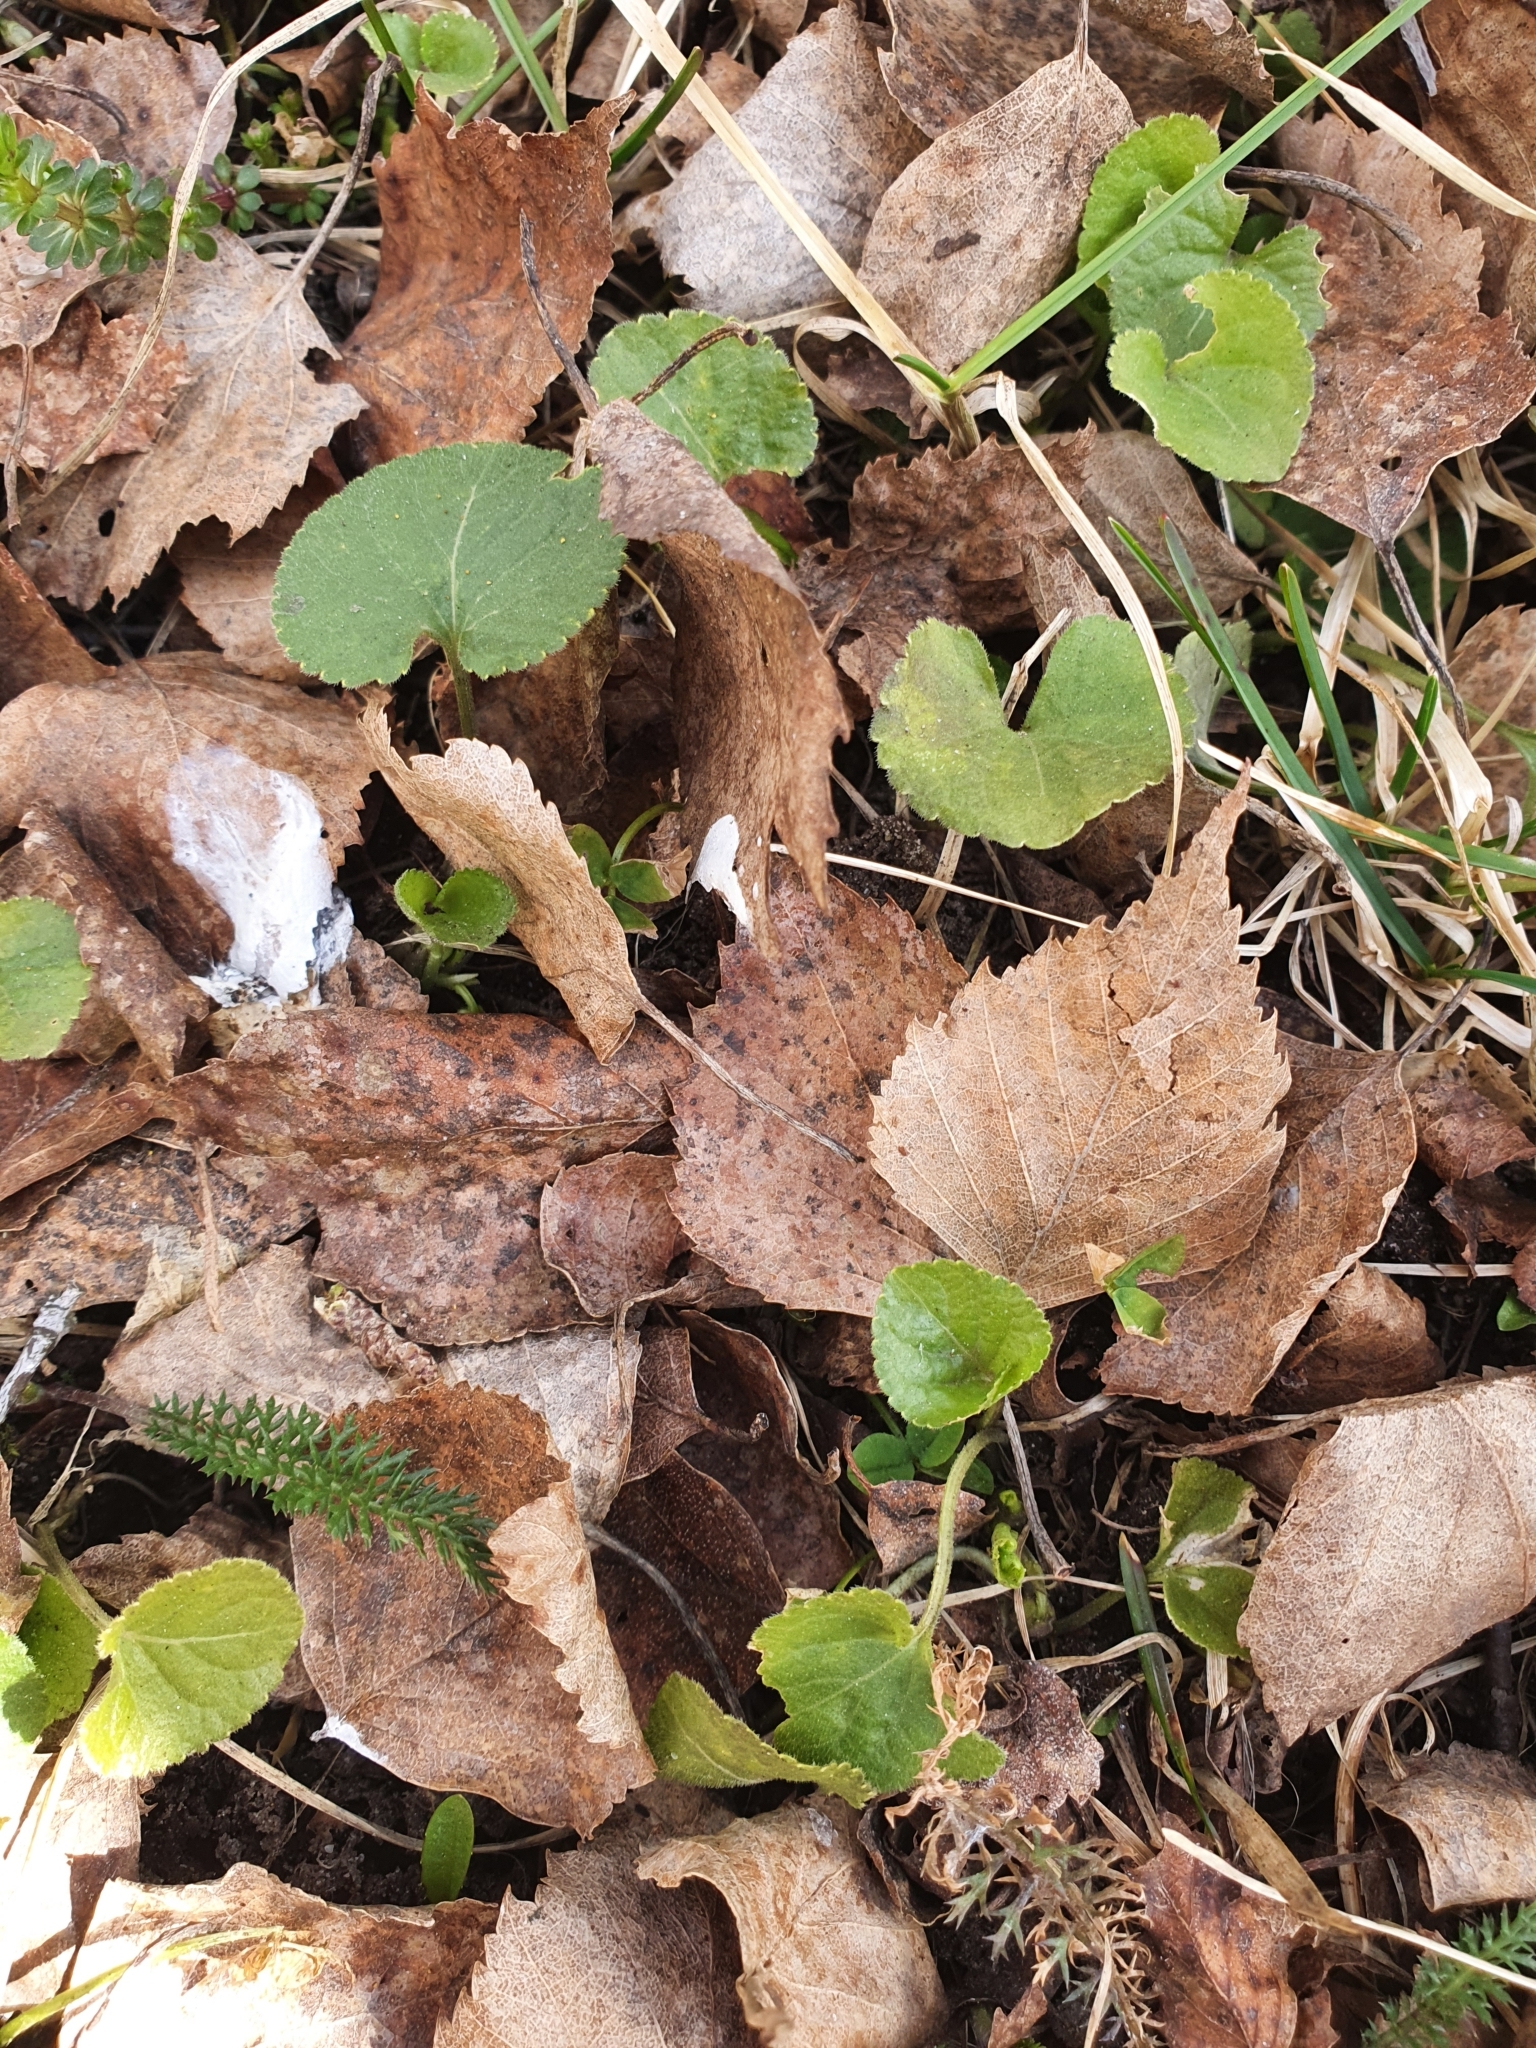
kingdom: Plantae
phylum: Tracheophyta
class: Magnoliopsida
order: Malpighiales
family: Violaceae
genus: Viola
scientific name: Viola odorata
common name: Sweet violet
